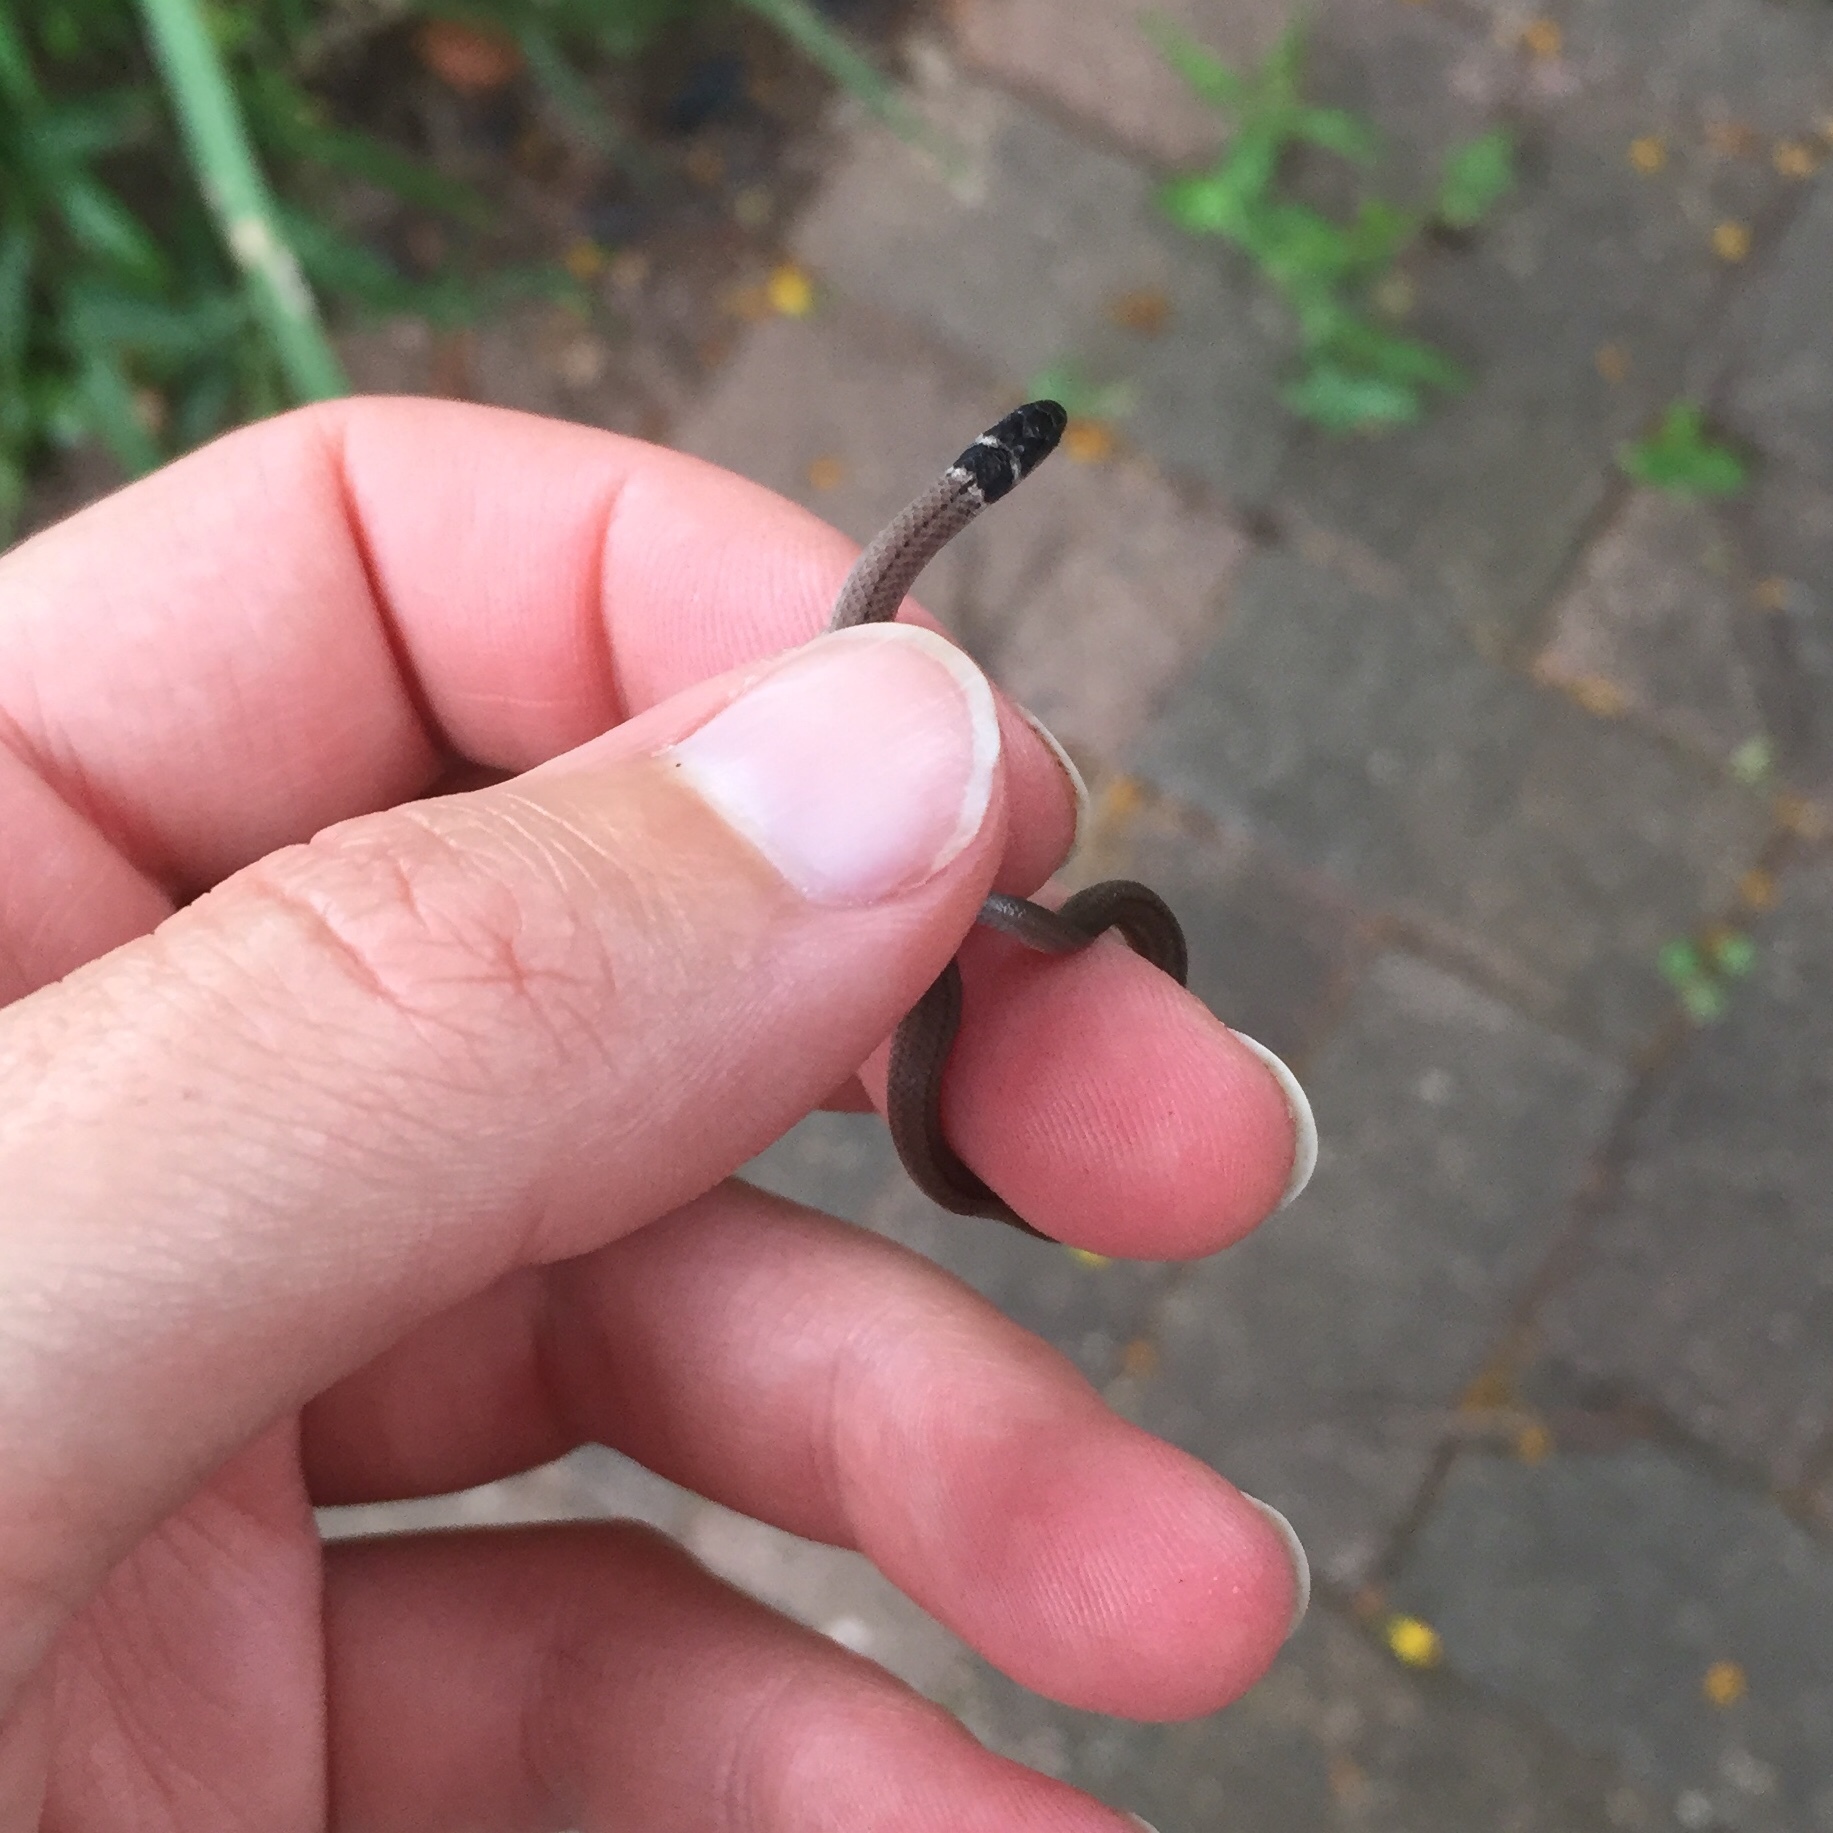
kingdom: Animalia
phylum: Chordata
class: Squamata
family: Atractaspididae
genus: Aparallactus
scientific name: Aparallactus capensis
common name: Cape centipede eater
